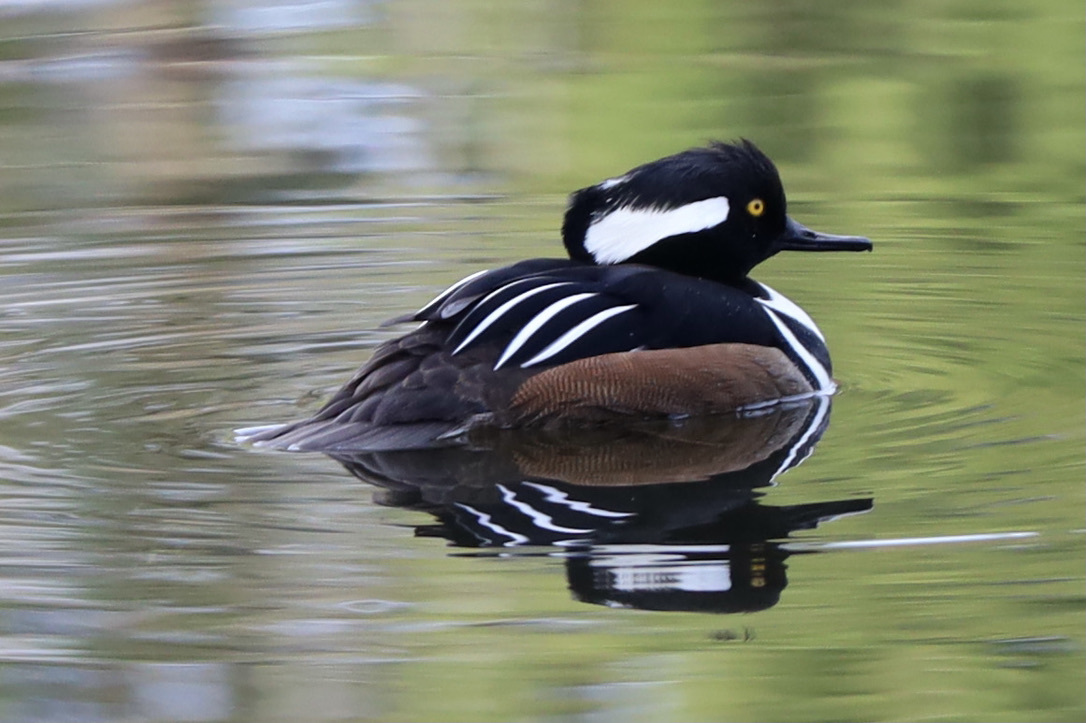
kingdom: Animalia
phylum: Chordata
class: Aves
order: Anseriformes
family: Anatidae
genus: Lophodytes
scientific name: Lophodytes cucullatus
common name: Hooded merganser
